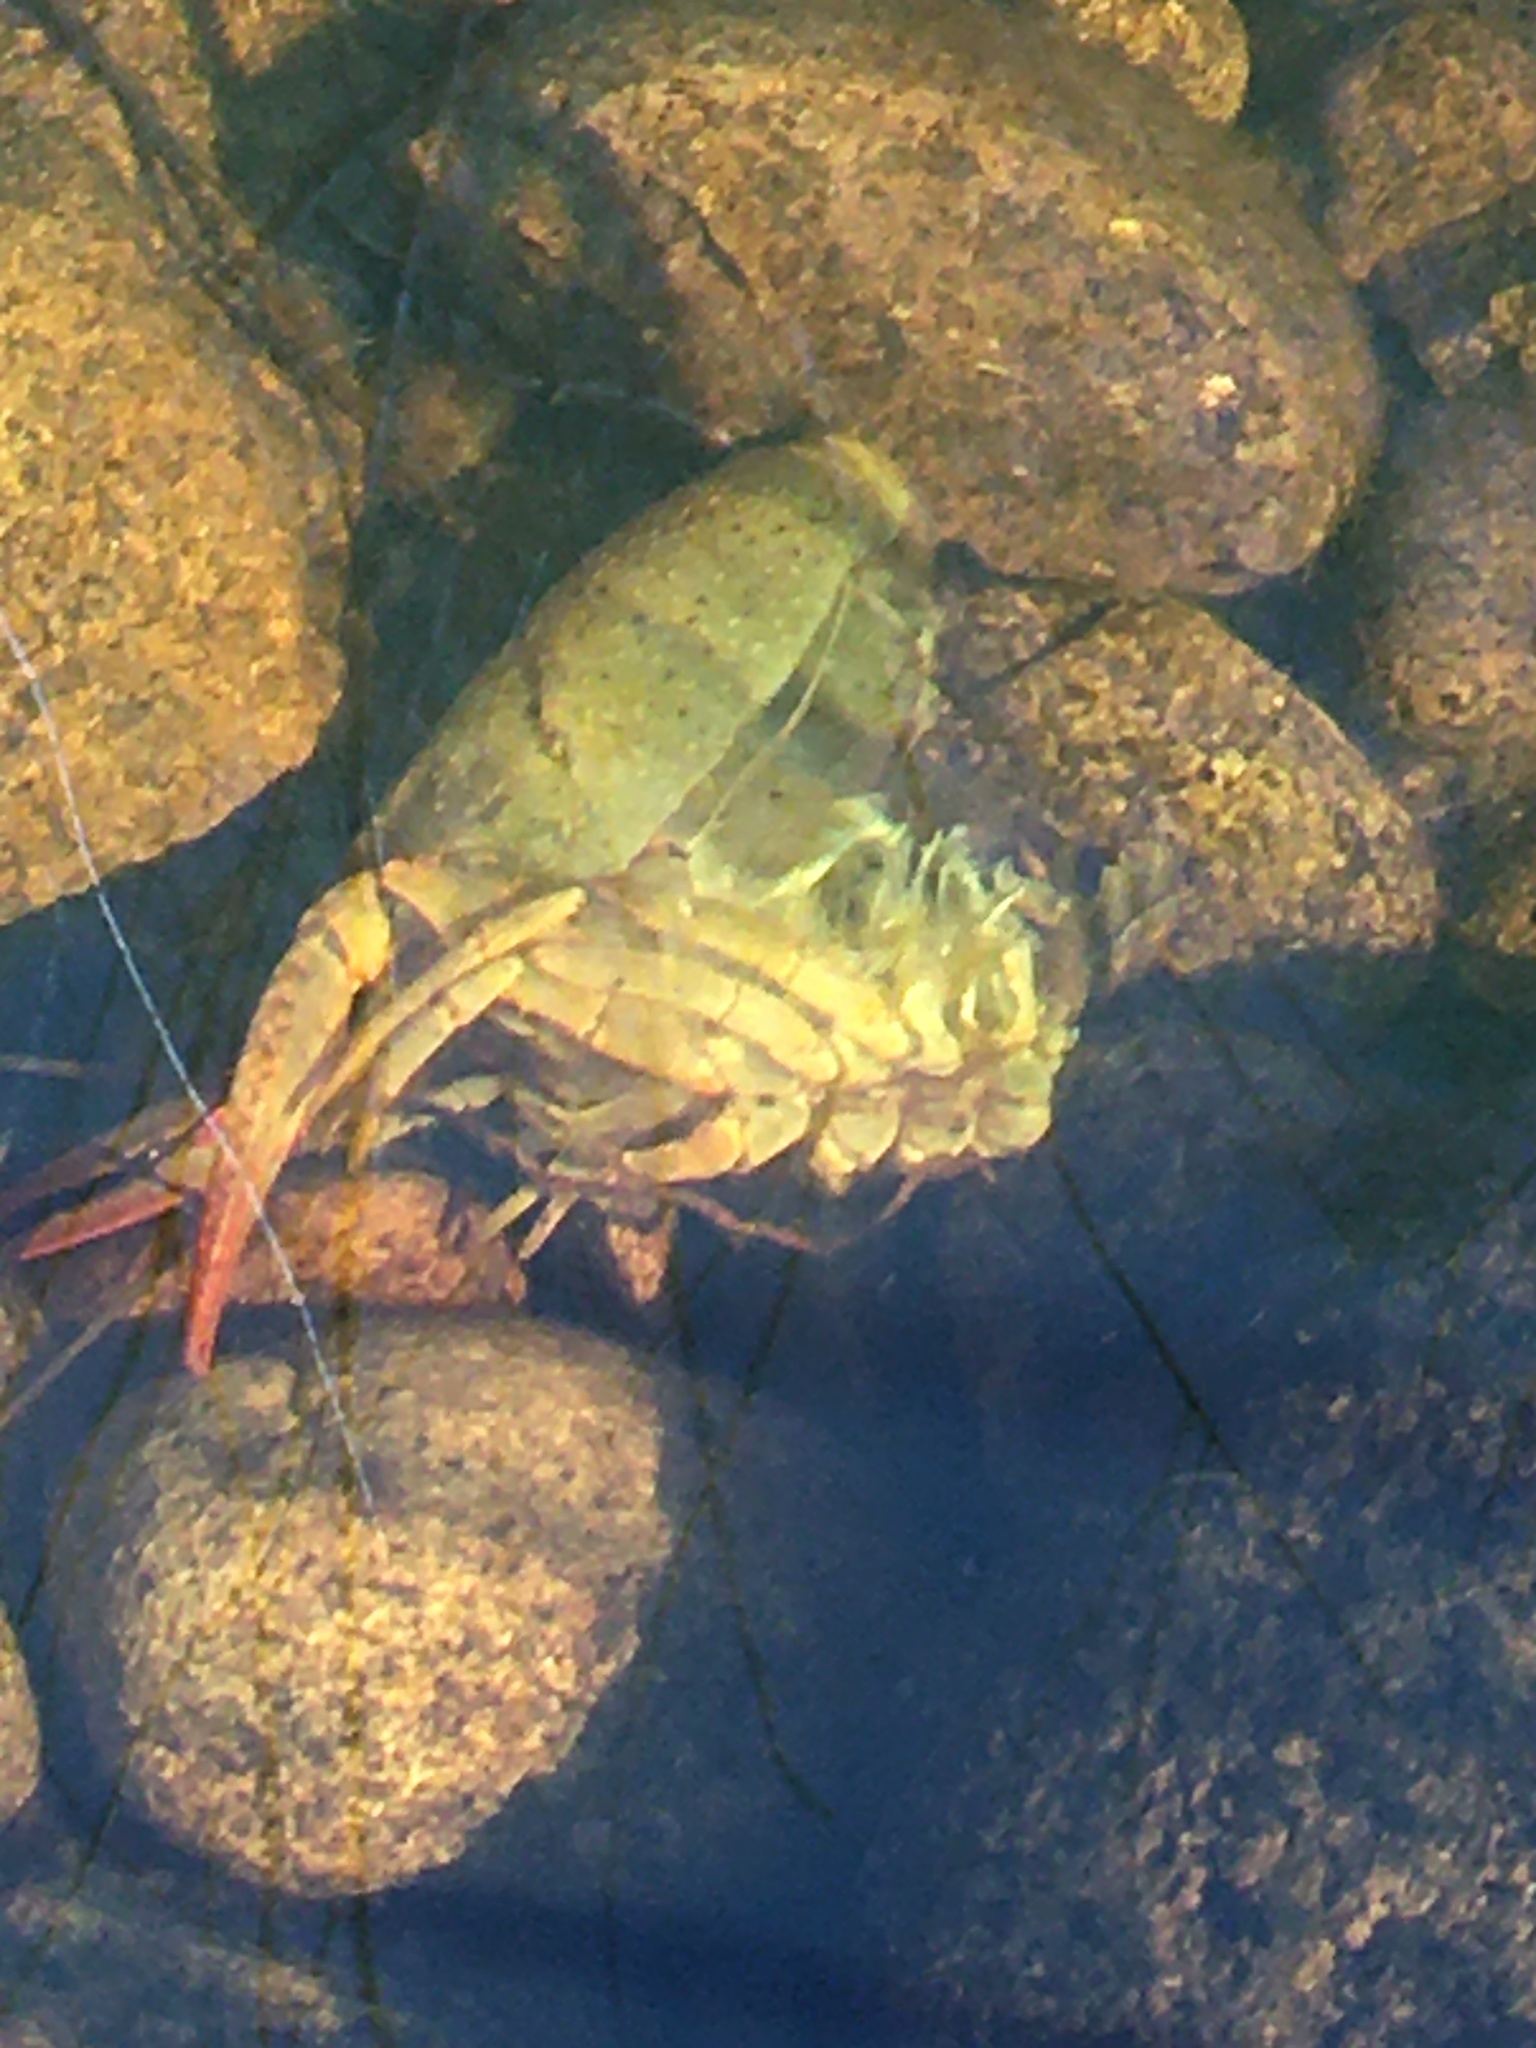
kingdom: Animalia
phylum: Arthropoda
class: Malacostraca
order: Decapoda
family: Cambaridae
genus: Procambarus
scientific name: Procambarus clarkii
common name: Red swamp crayfish
